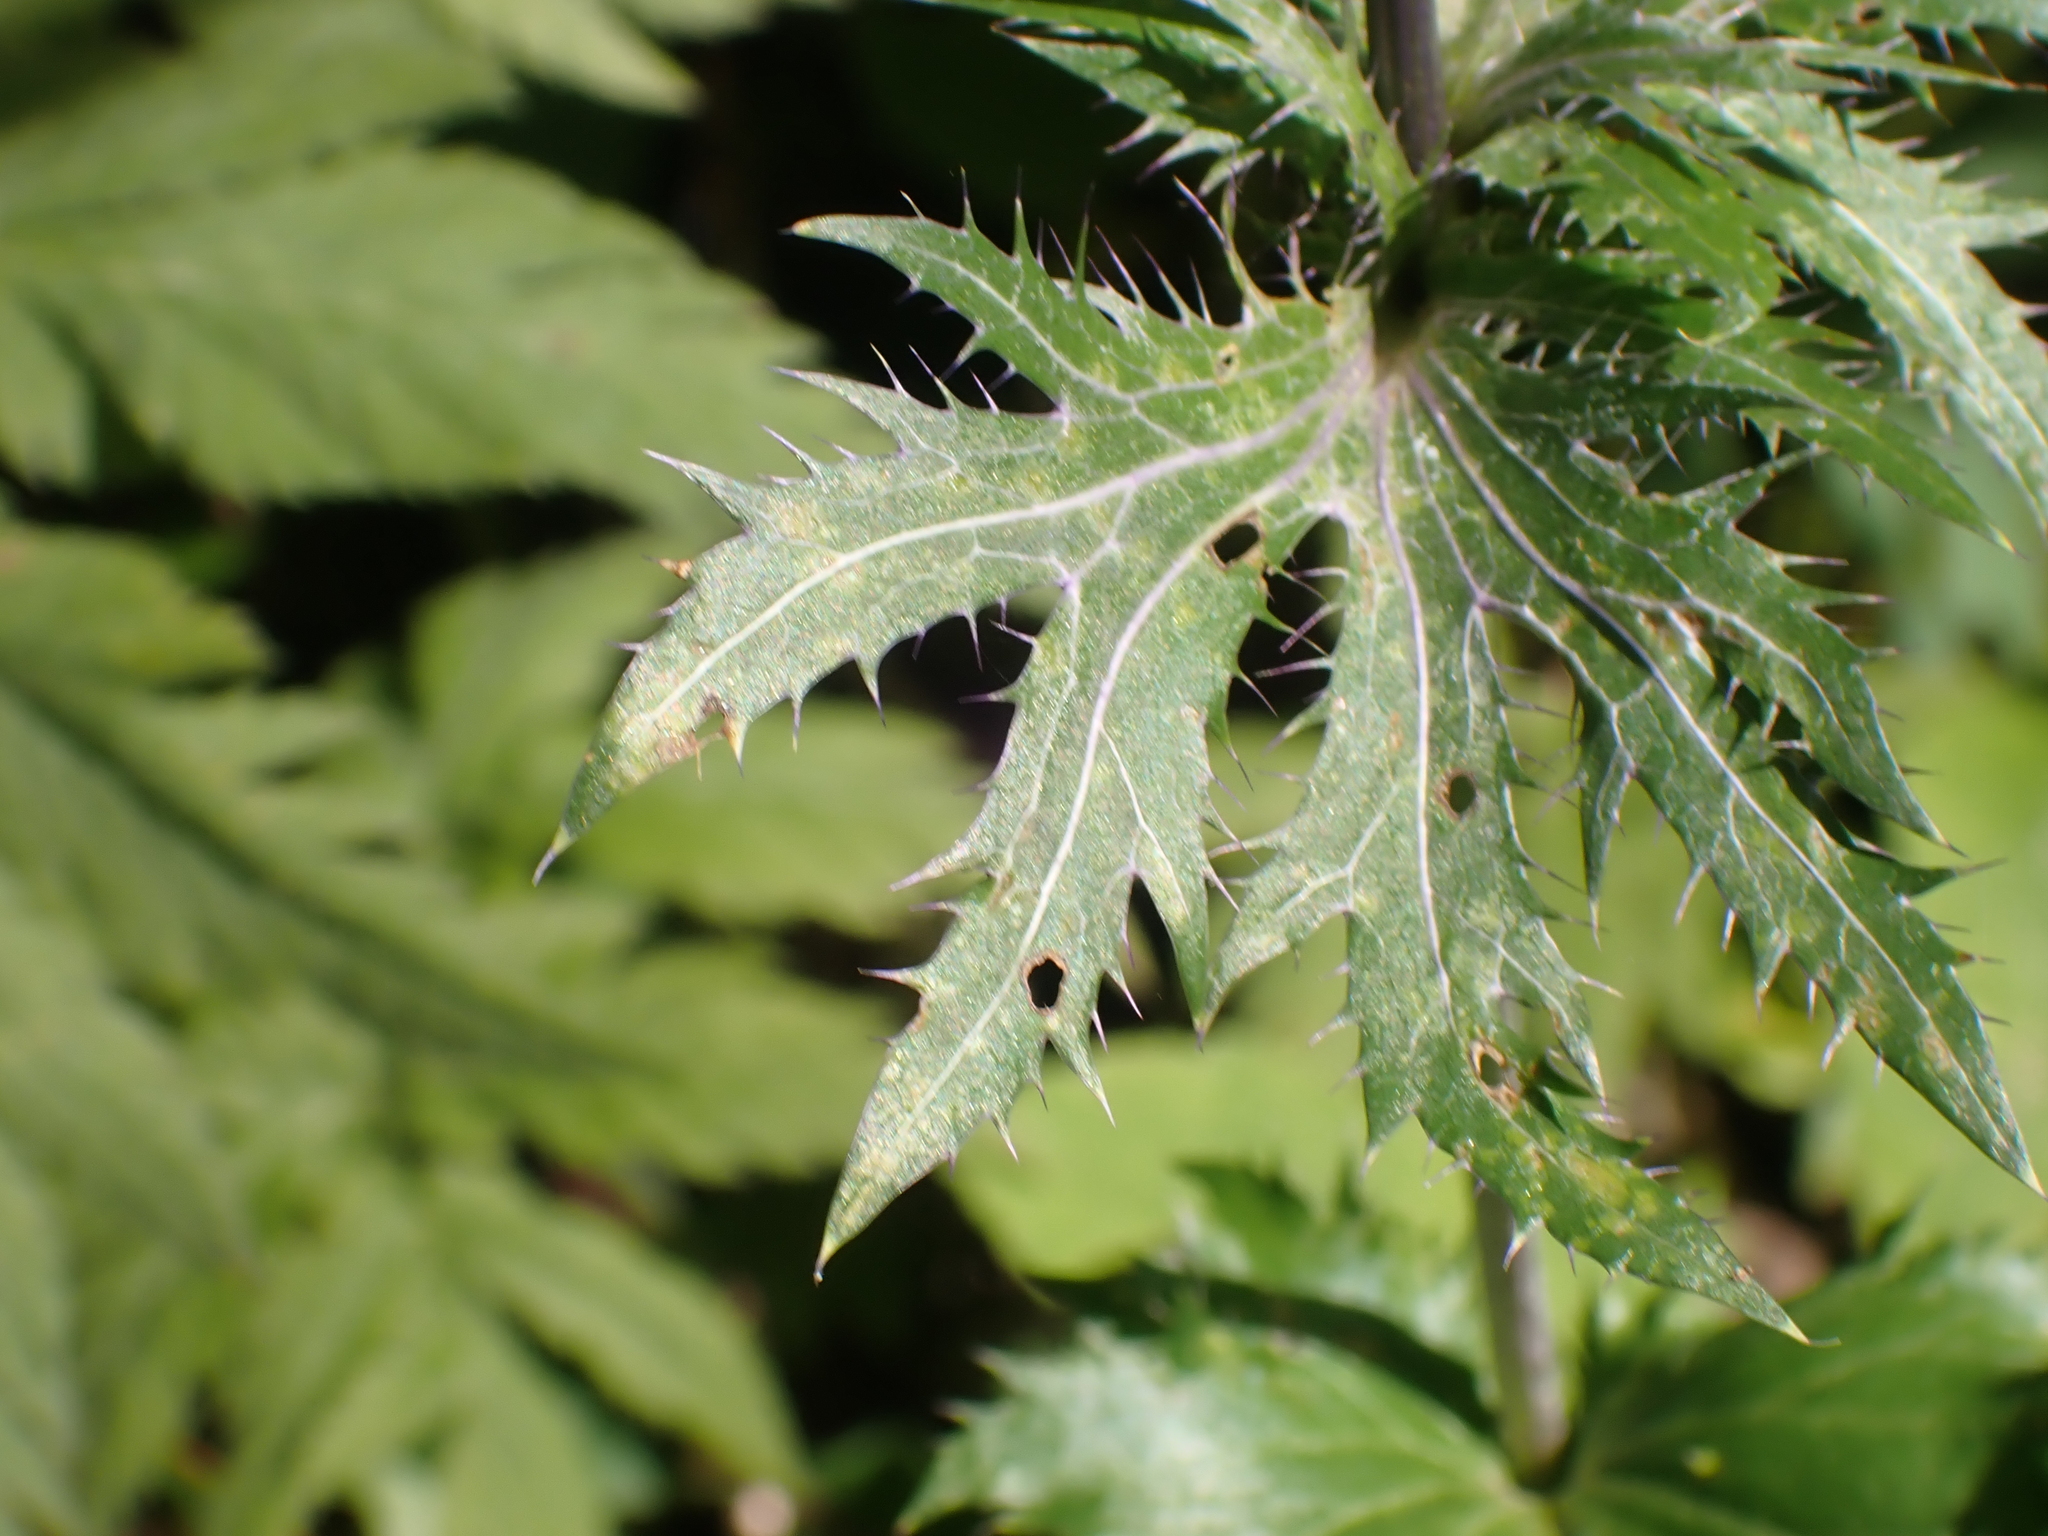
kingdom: Plantae
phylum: Tracheophyta
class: Magnoliopsida
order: Apiales
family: Apiaceae
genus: Eryngium
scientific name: Eryngium alpinum
